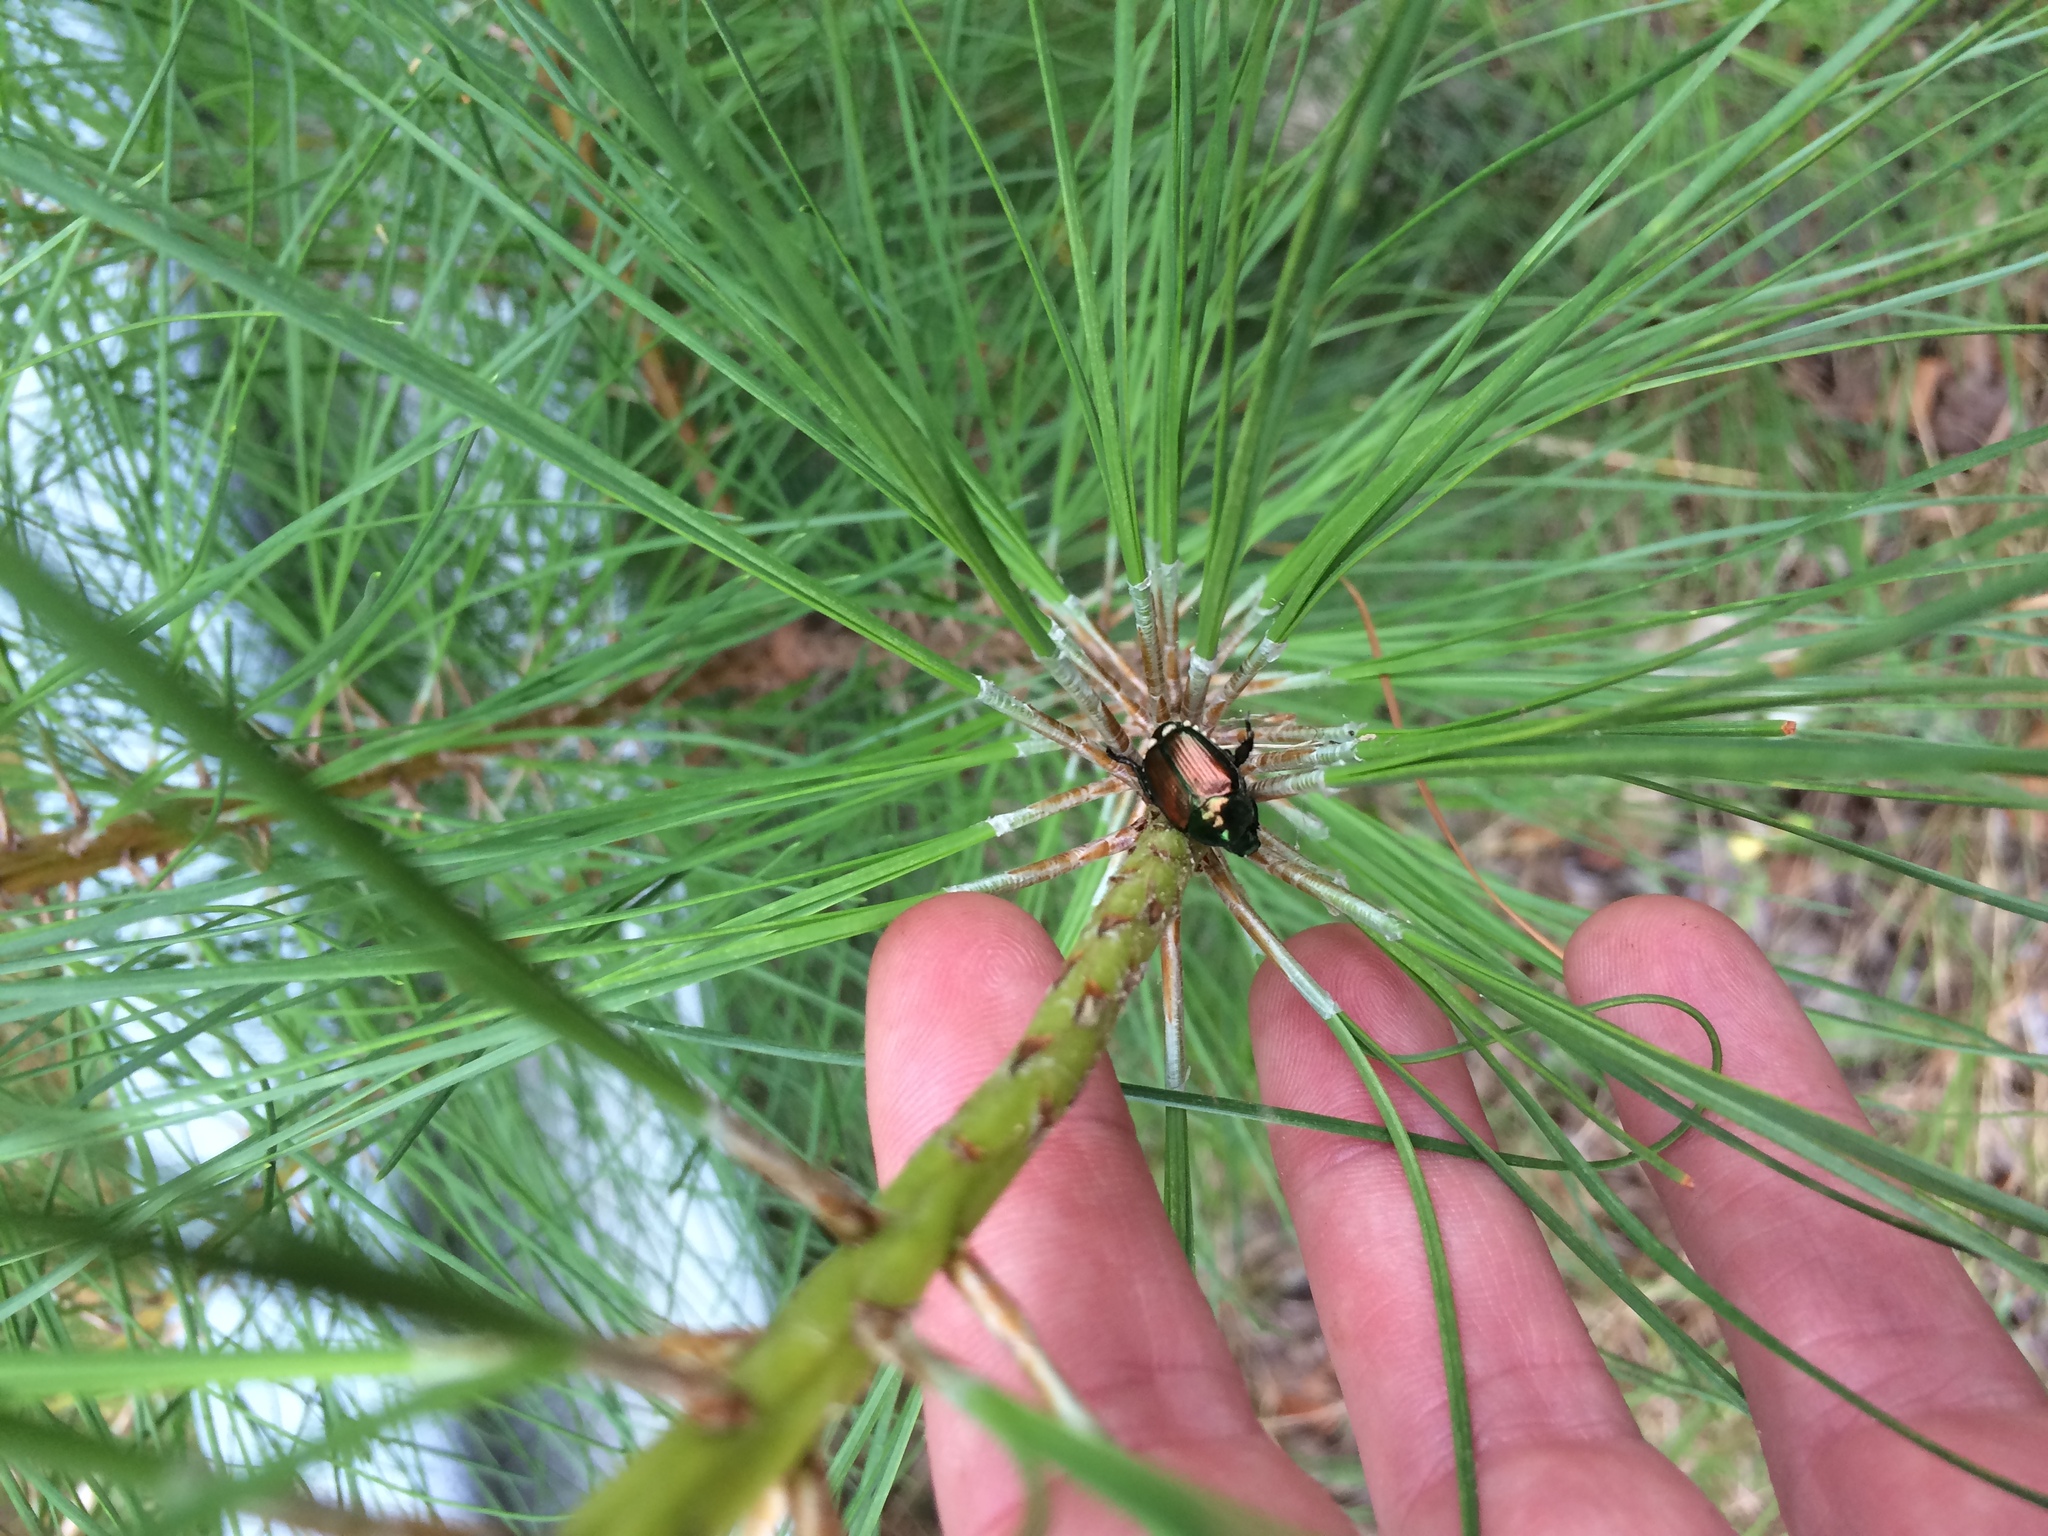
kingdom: Animalia
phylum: Arthropoda
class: Insecta
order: Coleoptera
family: Scarabaeidae
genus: Popillia
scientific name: Popillia japonica
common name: Japanese beetle
